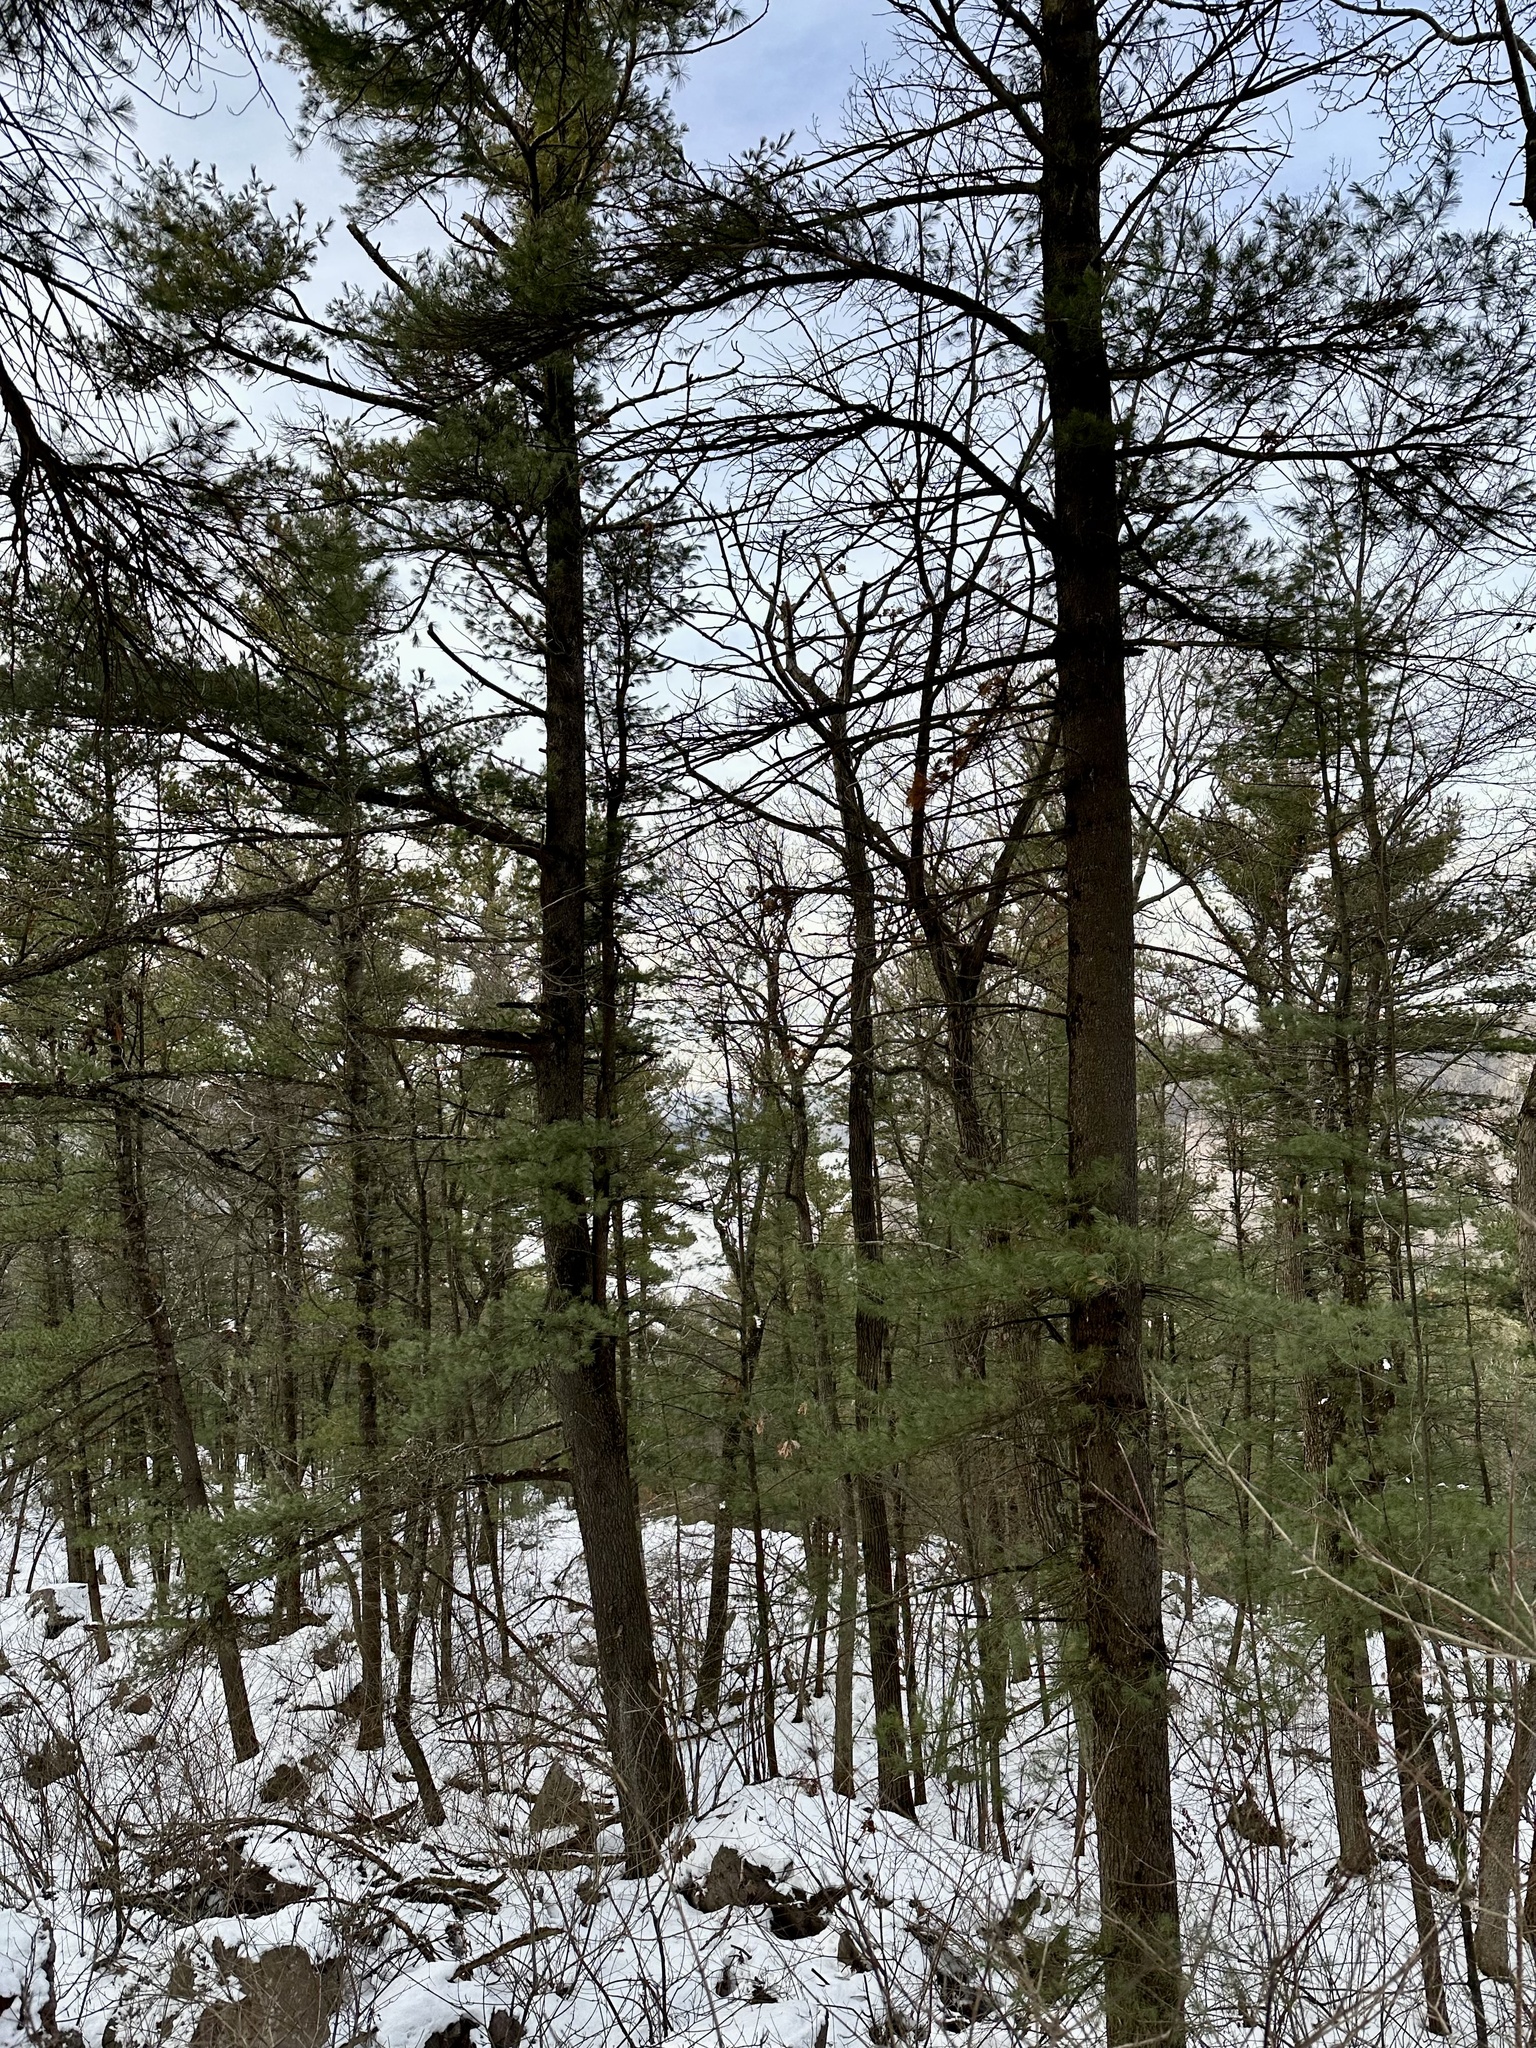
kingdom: Plantae
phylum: Tracheophyta
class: Pinopsida
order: Pinales
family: Pinaceae
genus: Pinus
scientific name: Pinus strobus
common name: Weymouth pine
